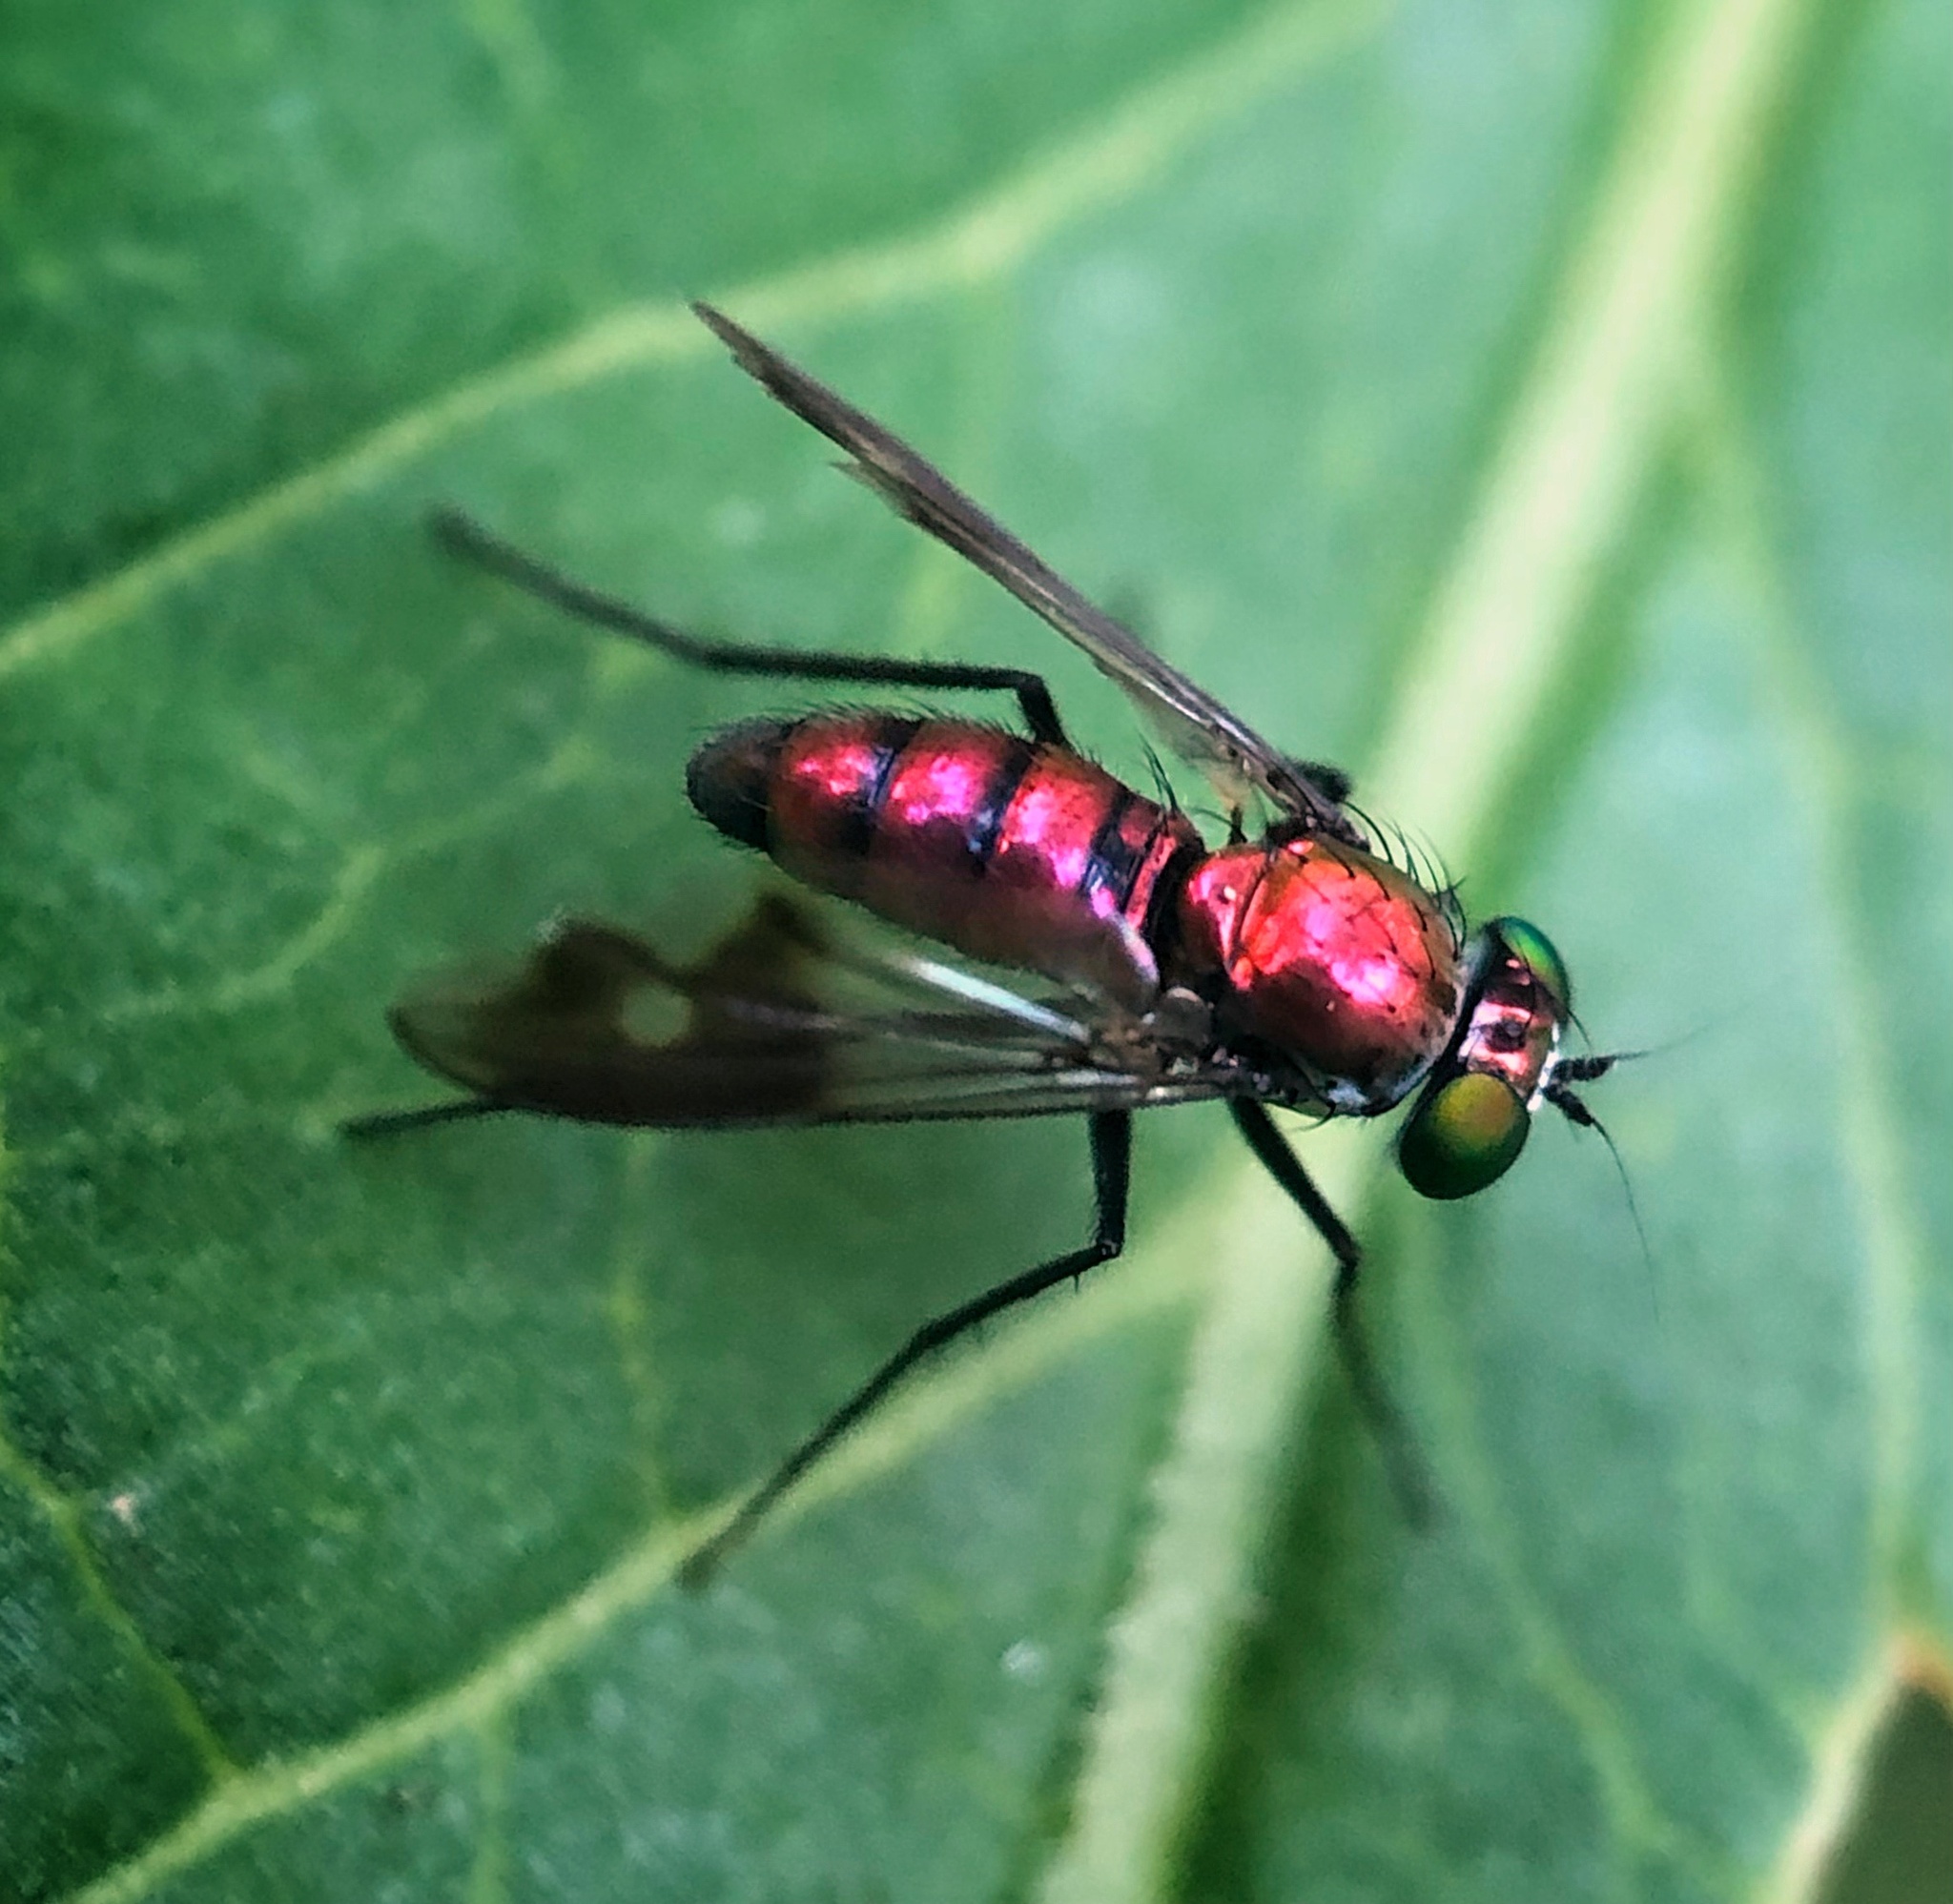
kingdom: Animalia
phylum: Arthropoda
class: Insecta
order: Diptera
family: Dolichopodidae
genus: Condylostylus
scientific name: Condylostylus patibulatus
